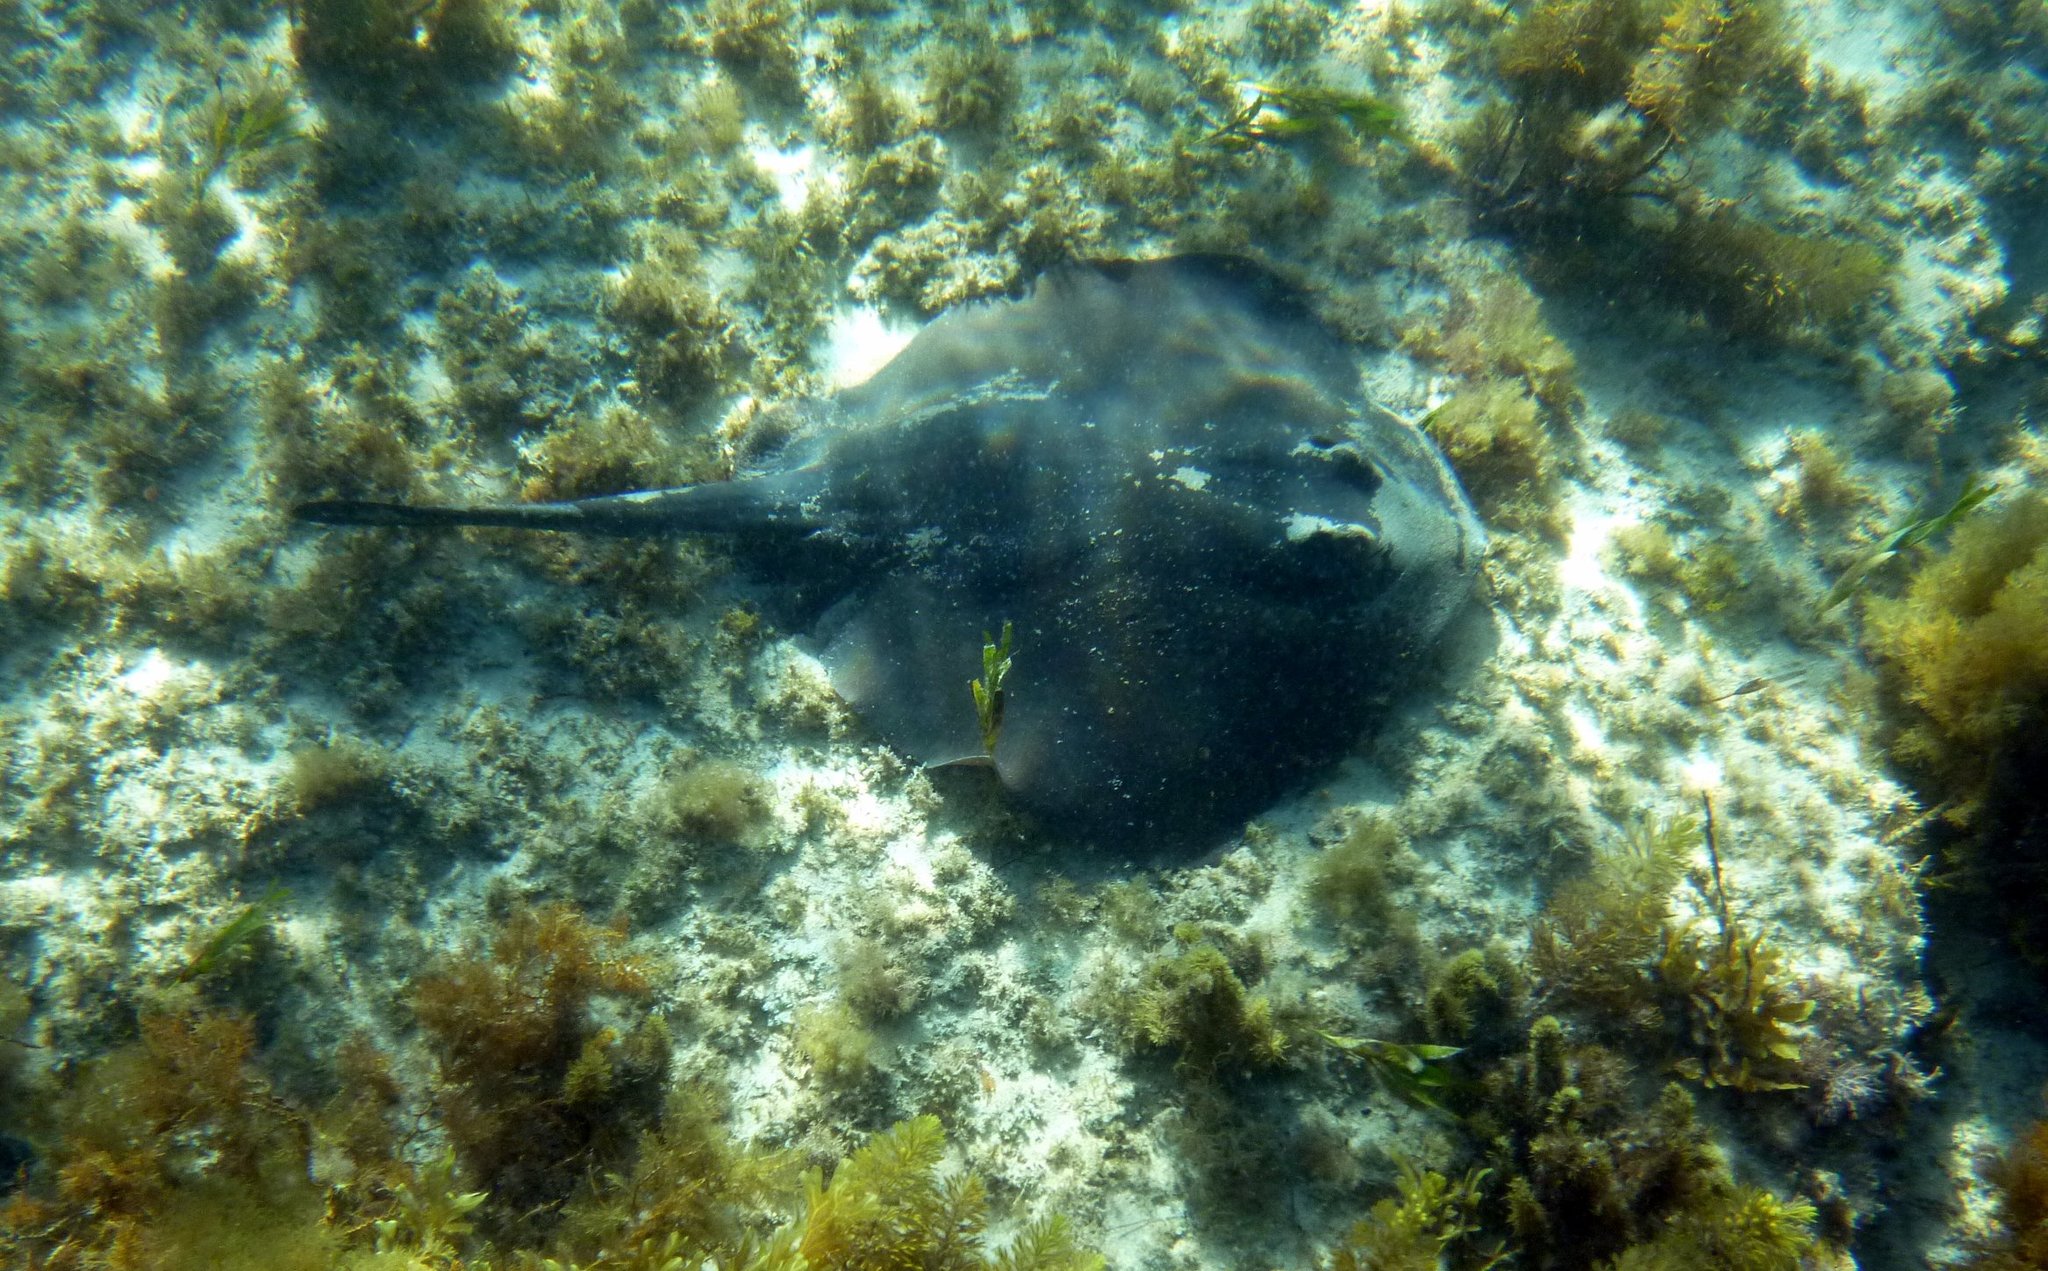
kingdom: Animalia
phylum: Chordata
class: Elasmobranchii
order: Myliobatiformes
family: Urolophidae
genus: Trygonoptera
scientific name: Trygonoptera imitata
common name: Eastern shovelnose stingaree
